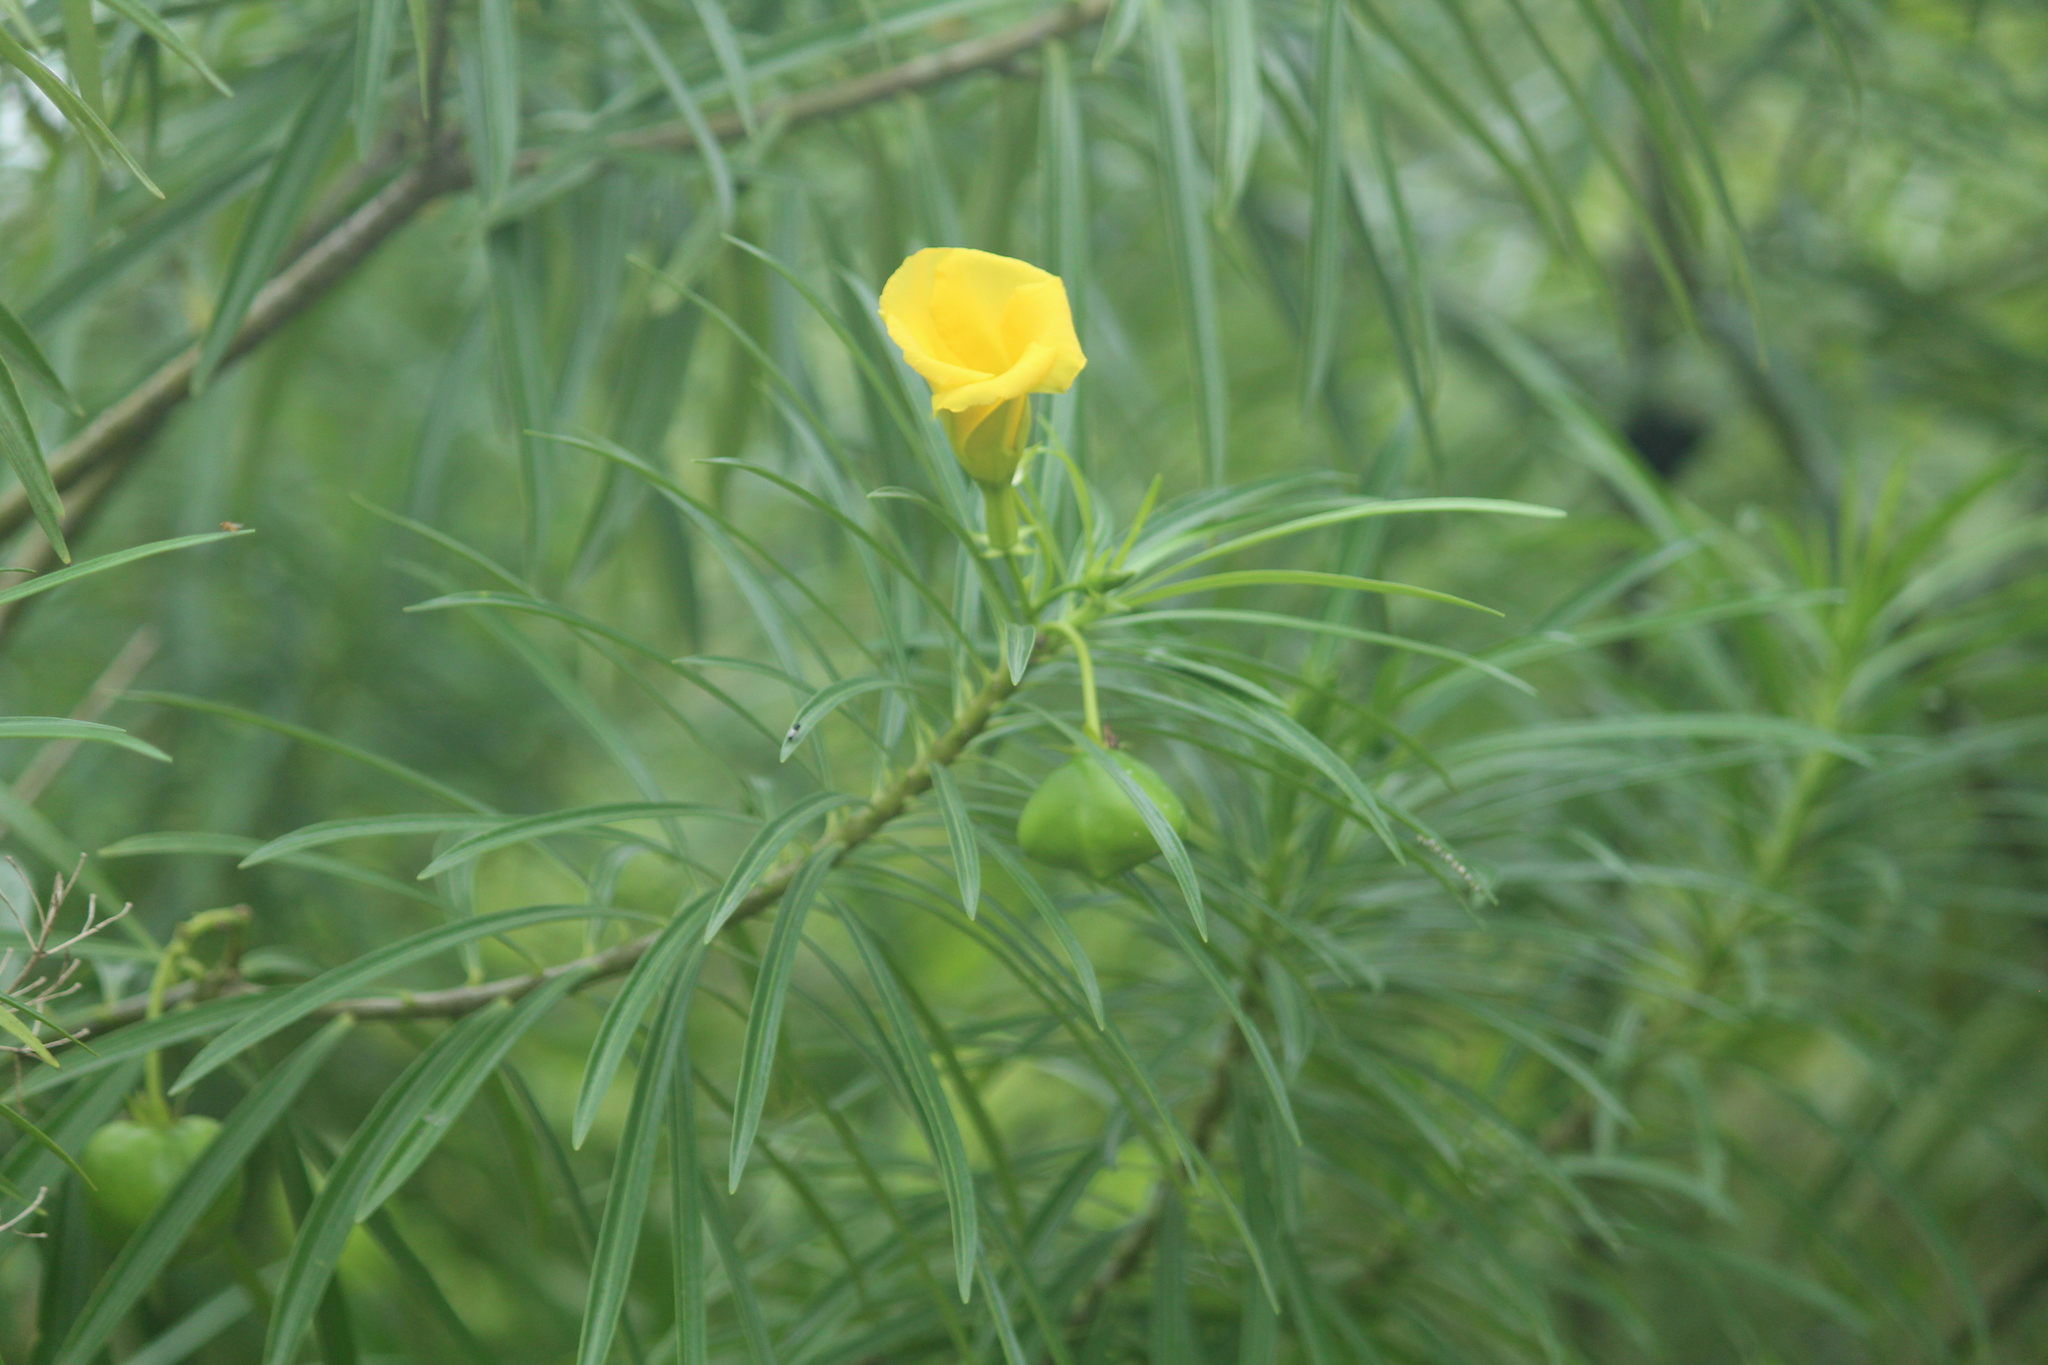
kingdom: Plantae
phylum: Tracheophyta
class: Magnoliopsida
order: Gentianales
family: Apocynaceae
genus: Cascabela
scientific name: Cascabela thevetia
